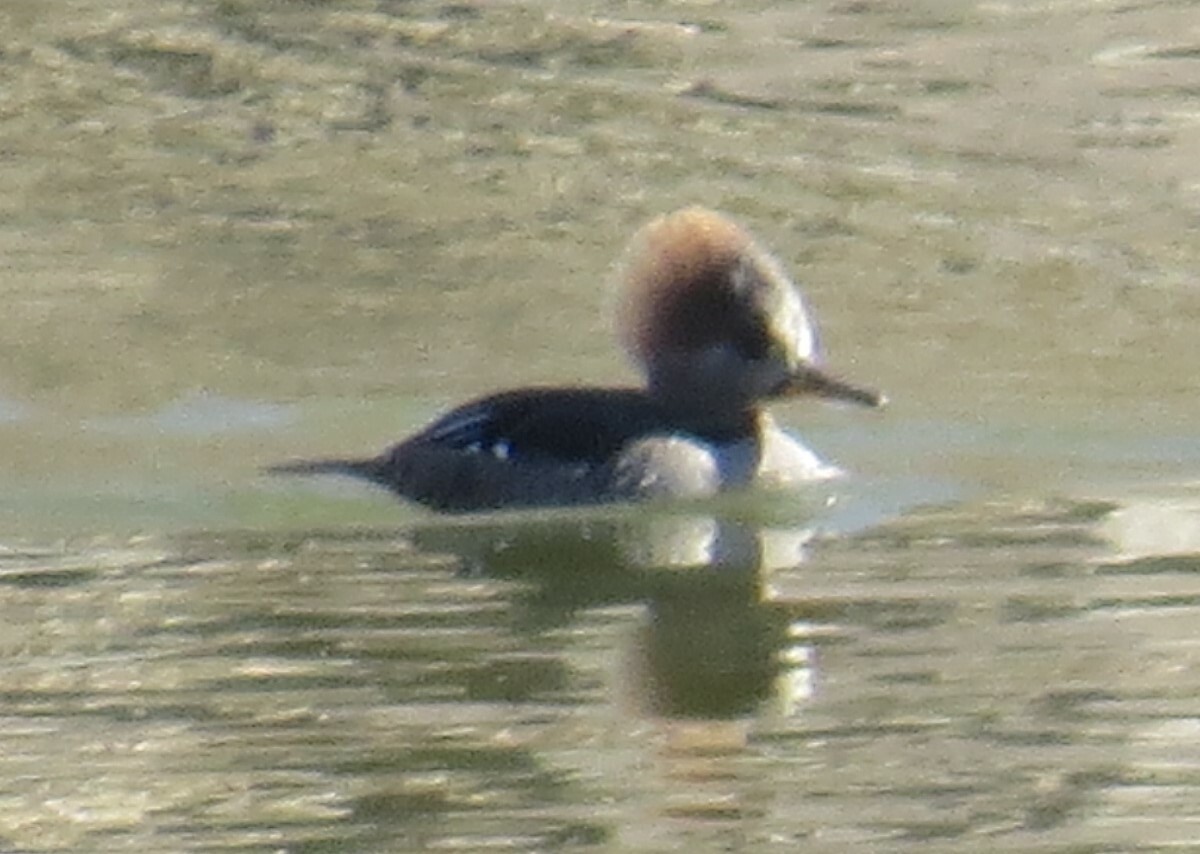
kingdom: Animalia
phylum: Chordata
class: Aves
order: Anseriformes
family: Anatidae
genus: Lophodytes
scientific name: Lophodytes cucullatus
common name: Hooded merganser
